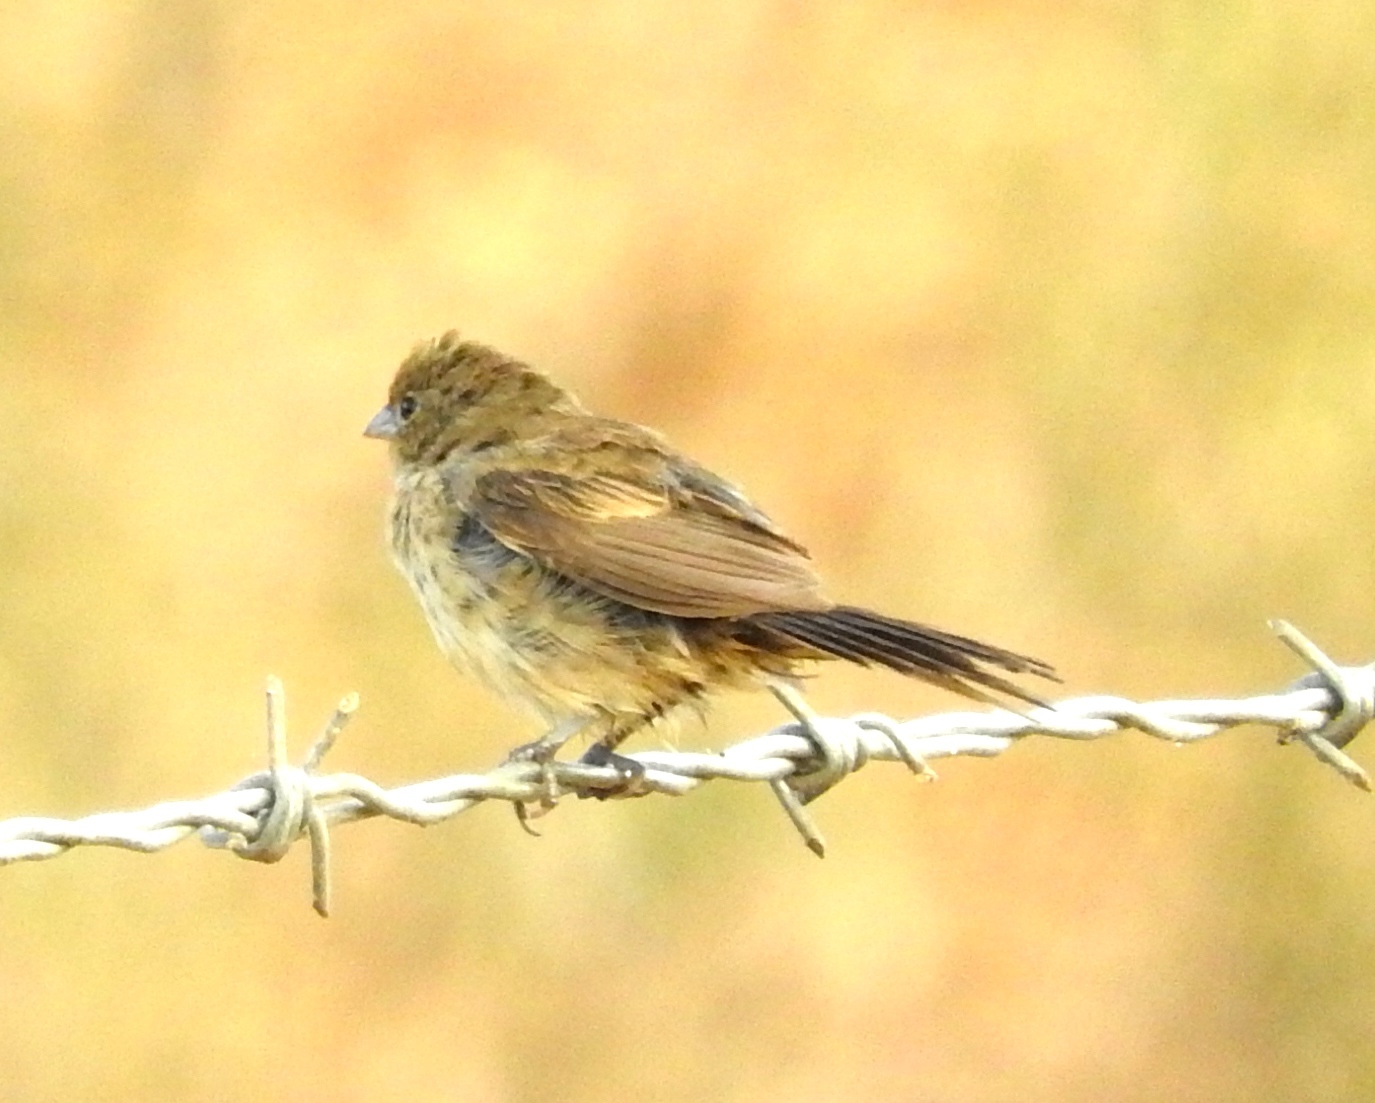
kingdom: Animalia
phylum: Chordata
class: Aves
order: Passeriformes
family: Thraupidae
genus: Volatinia
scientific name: Volatinia jacarina
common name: Blue-black grassquit
